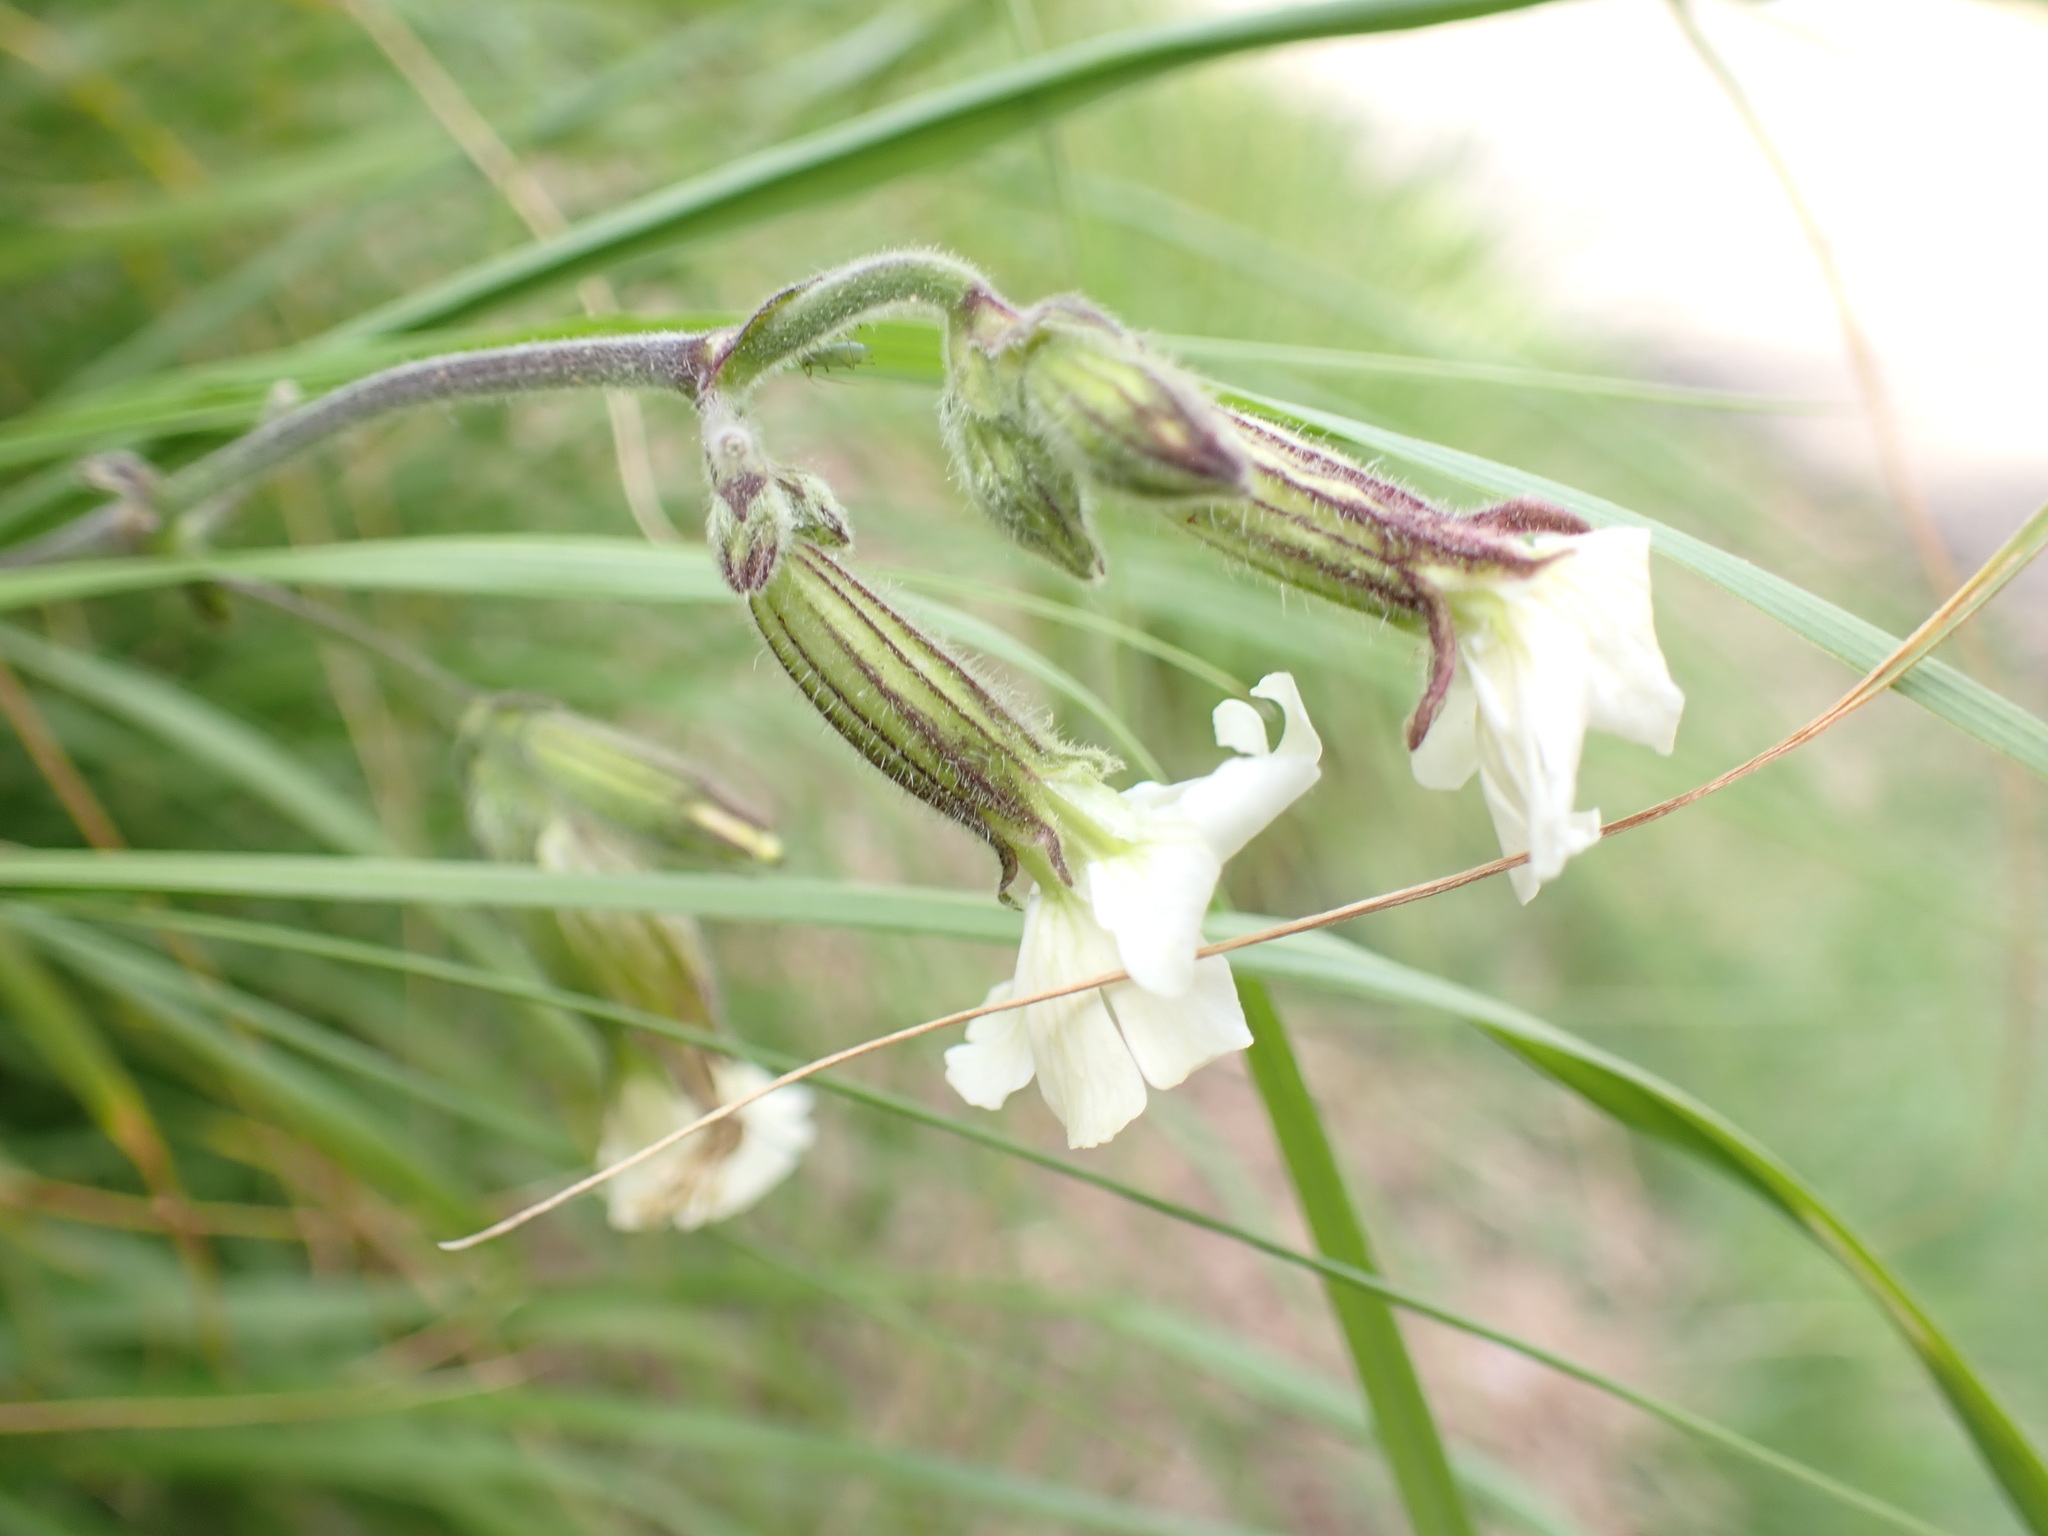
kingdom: Plantae
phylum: Tracheophyta
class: Magnoliopsida
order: Caryophyllales
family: Caryophyllaceae
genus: Silene
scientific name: Silene latifolia
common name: White campion
